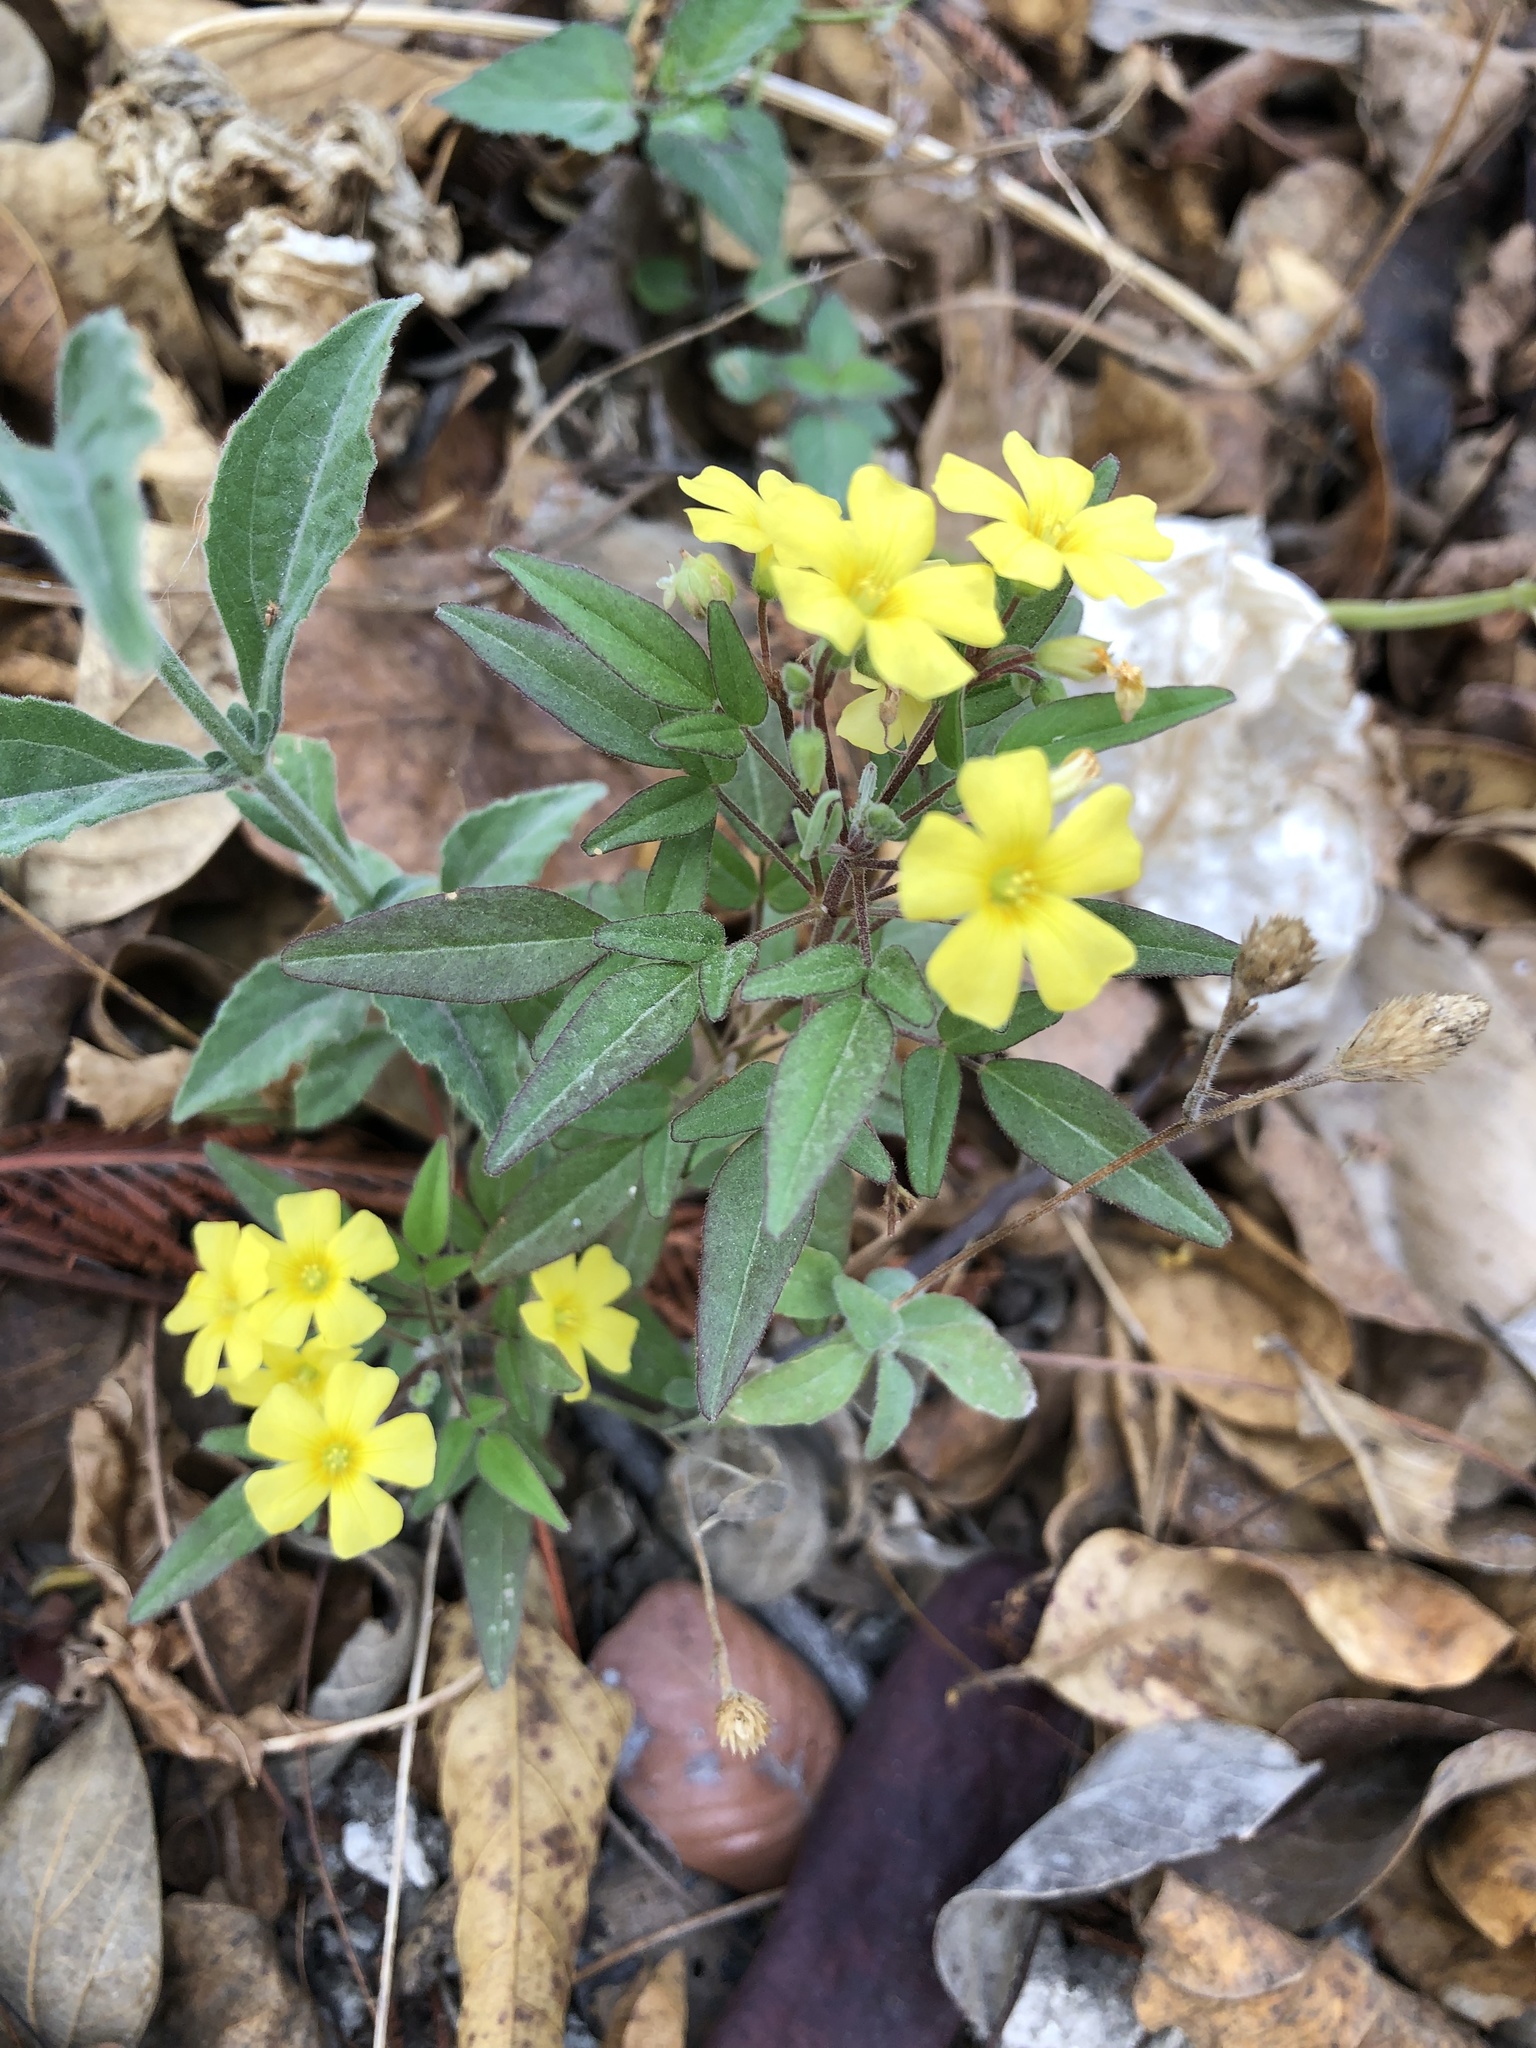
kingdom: Plantae
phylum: Tracheophyta
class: Magnoliopsida
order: Oxalidales
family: Oxalidaceae
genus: Oxalis
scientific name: Oxalis frutescens
